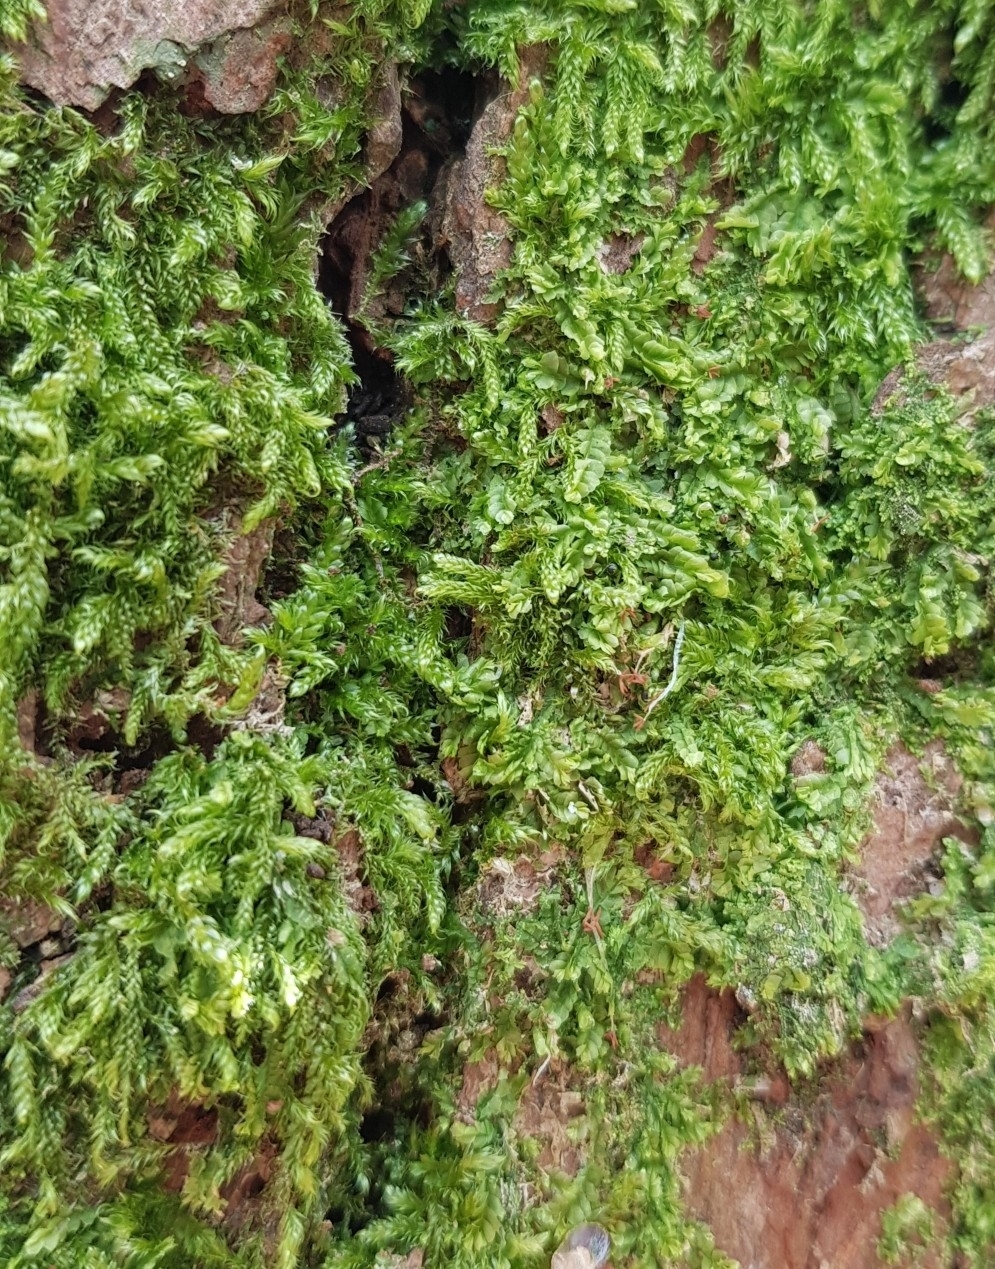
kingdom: Plantae
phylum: Marchantiophyta
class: Jungermanniopsida
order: Jungermanniales
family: Lophocoleaceae
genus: Lophocolea
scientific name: Lophocolea heterophylla
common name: Variable-leaved crestwort
